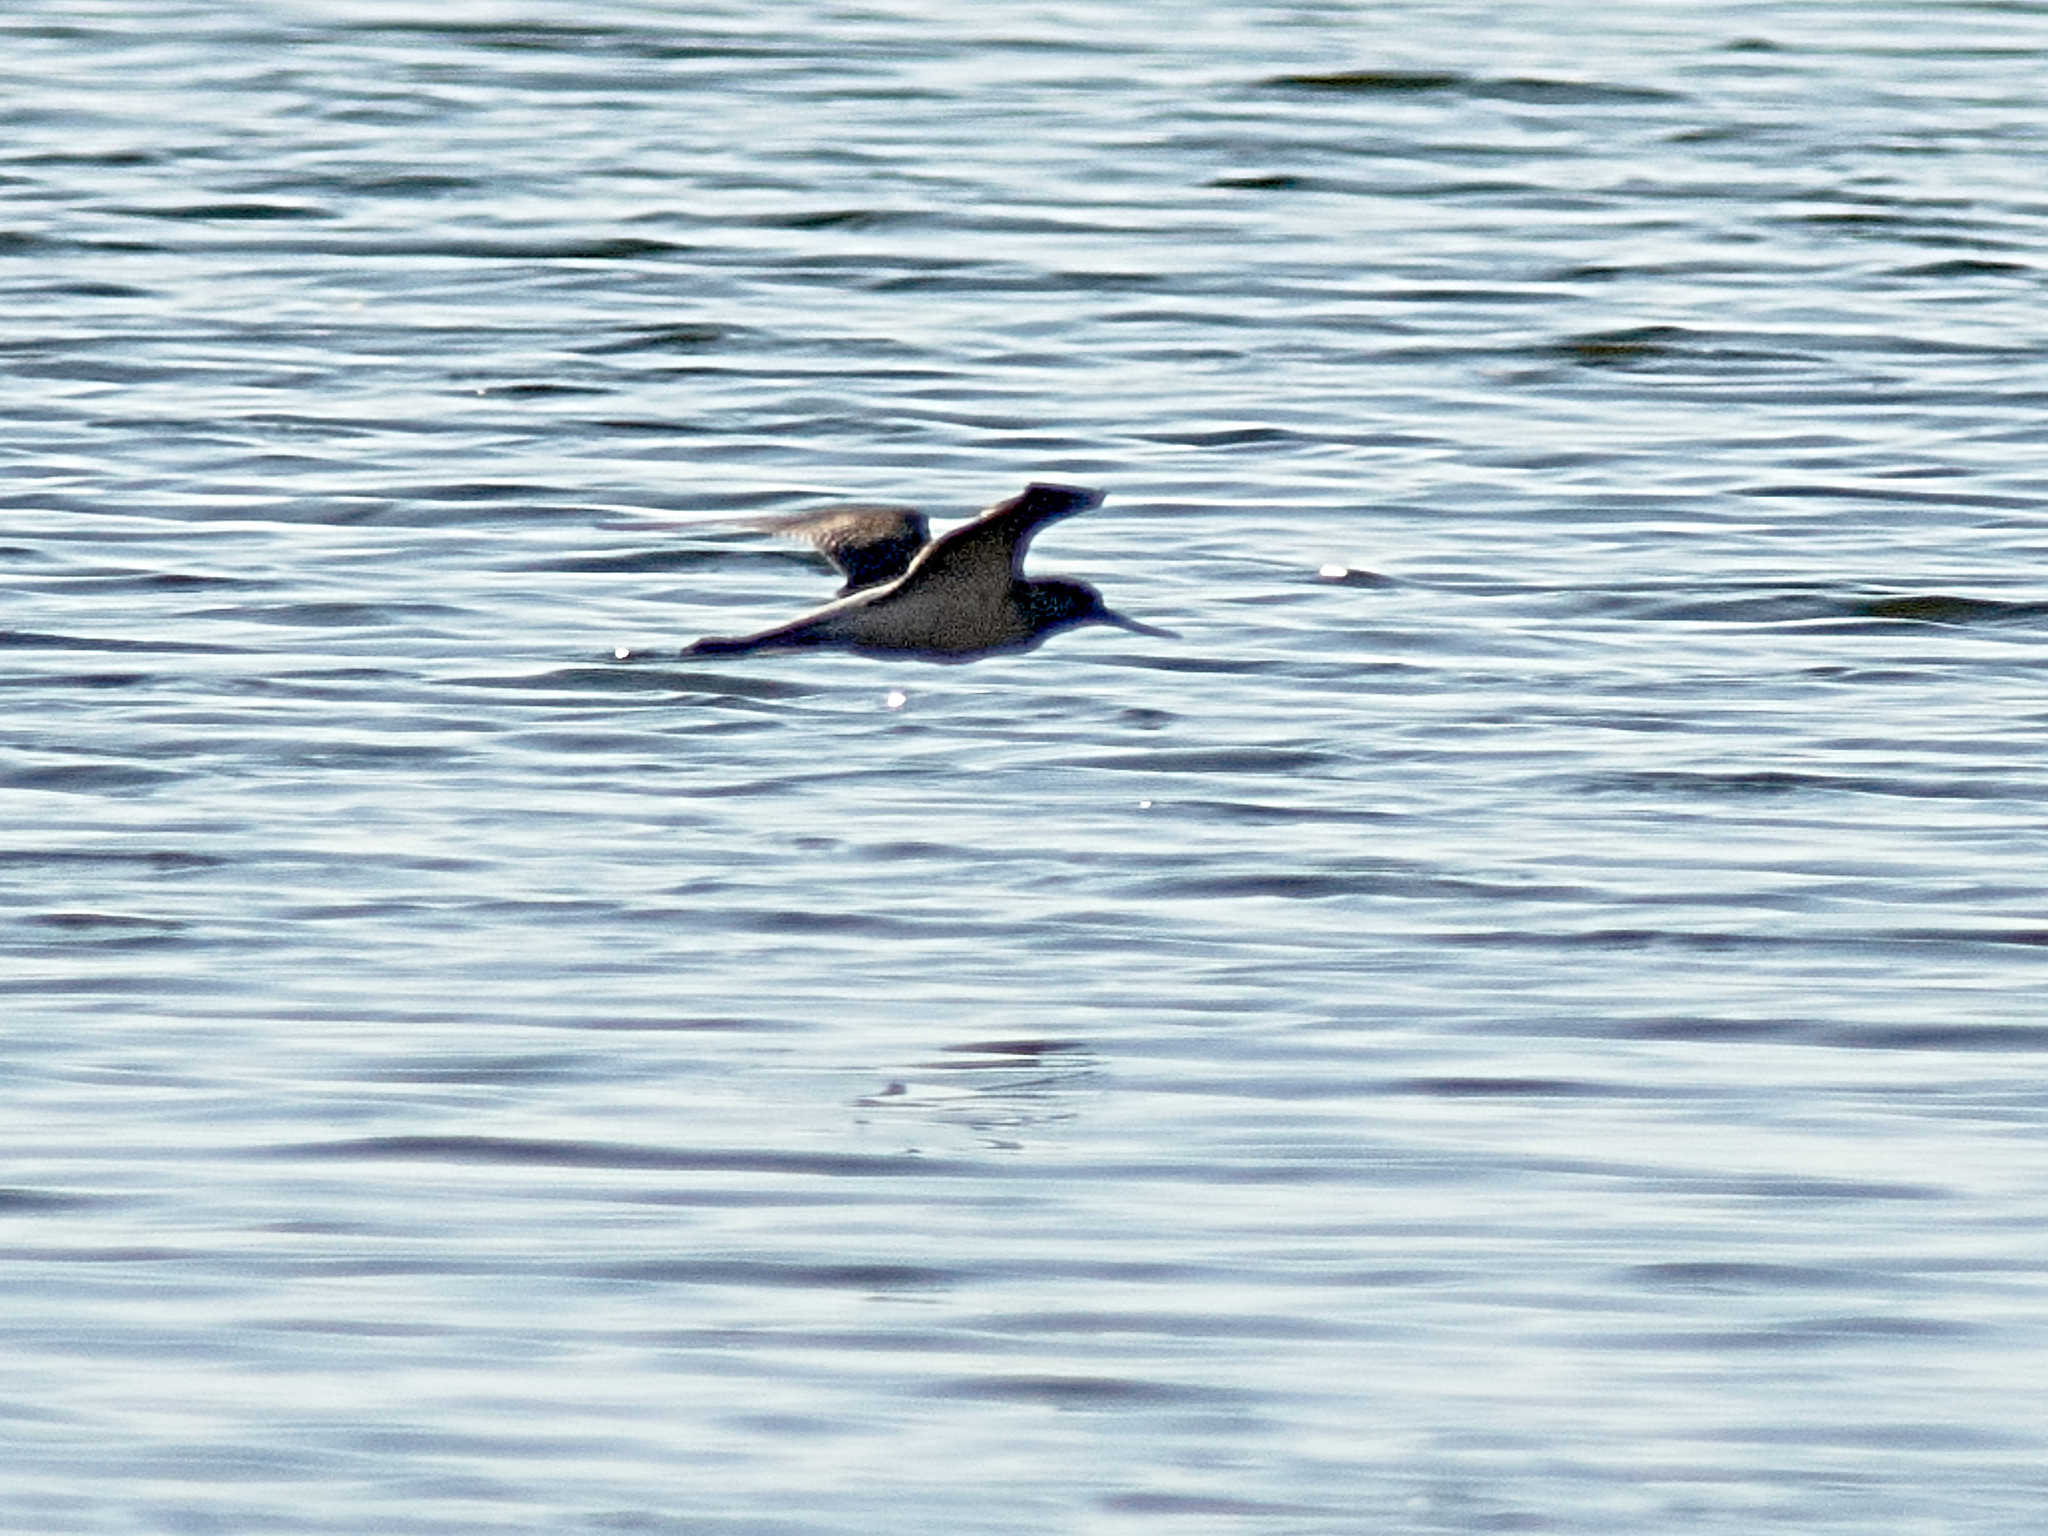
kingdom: Animalia
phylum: Chordata
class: Aves
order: Charadriiformes
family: Scolopacidae
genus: Tringa
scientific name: Tringa nebularia
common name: Common greenshank
